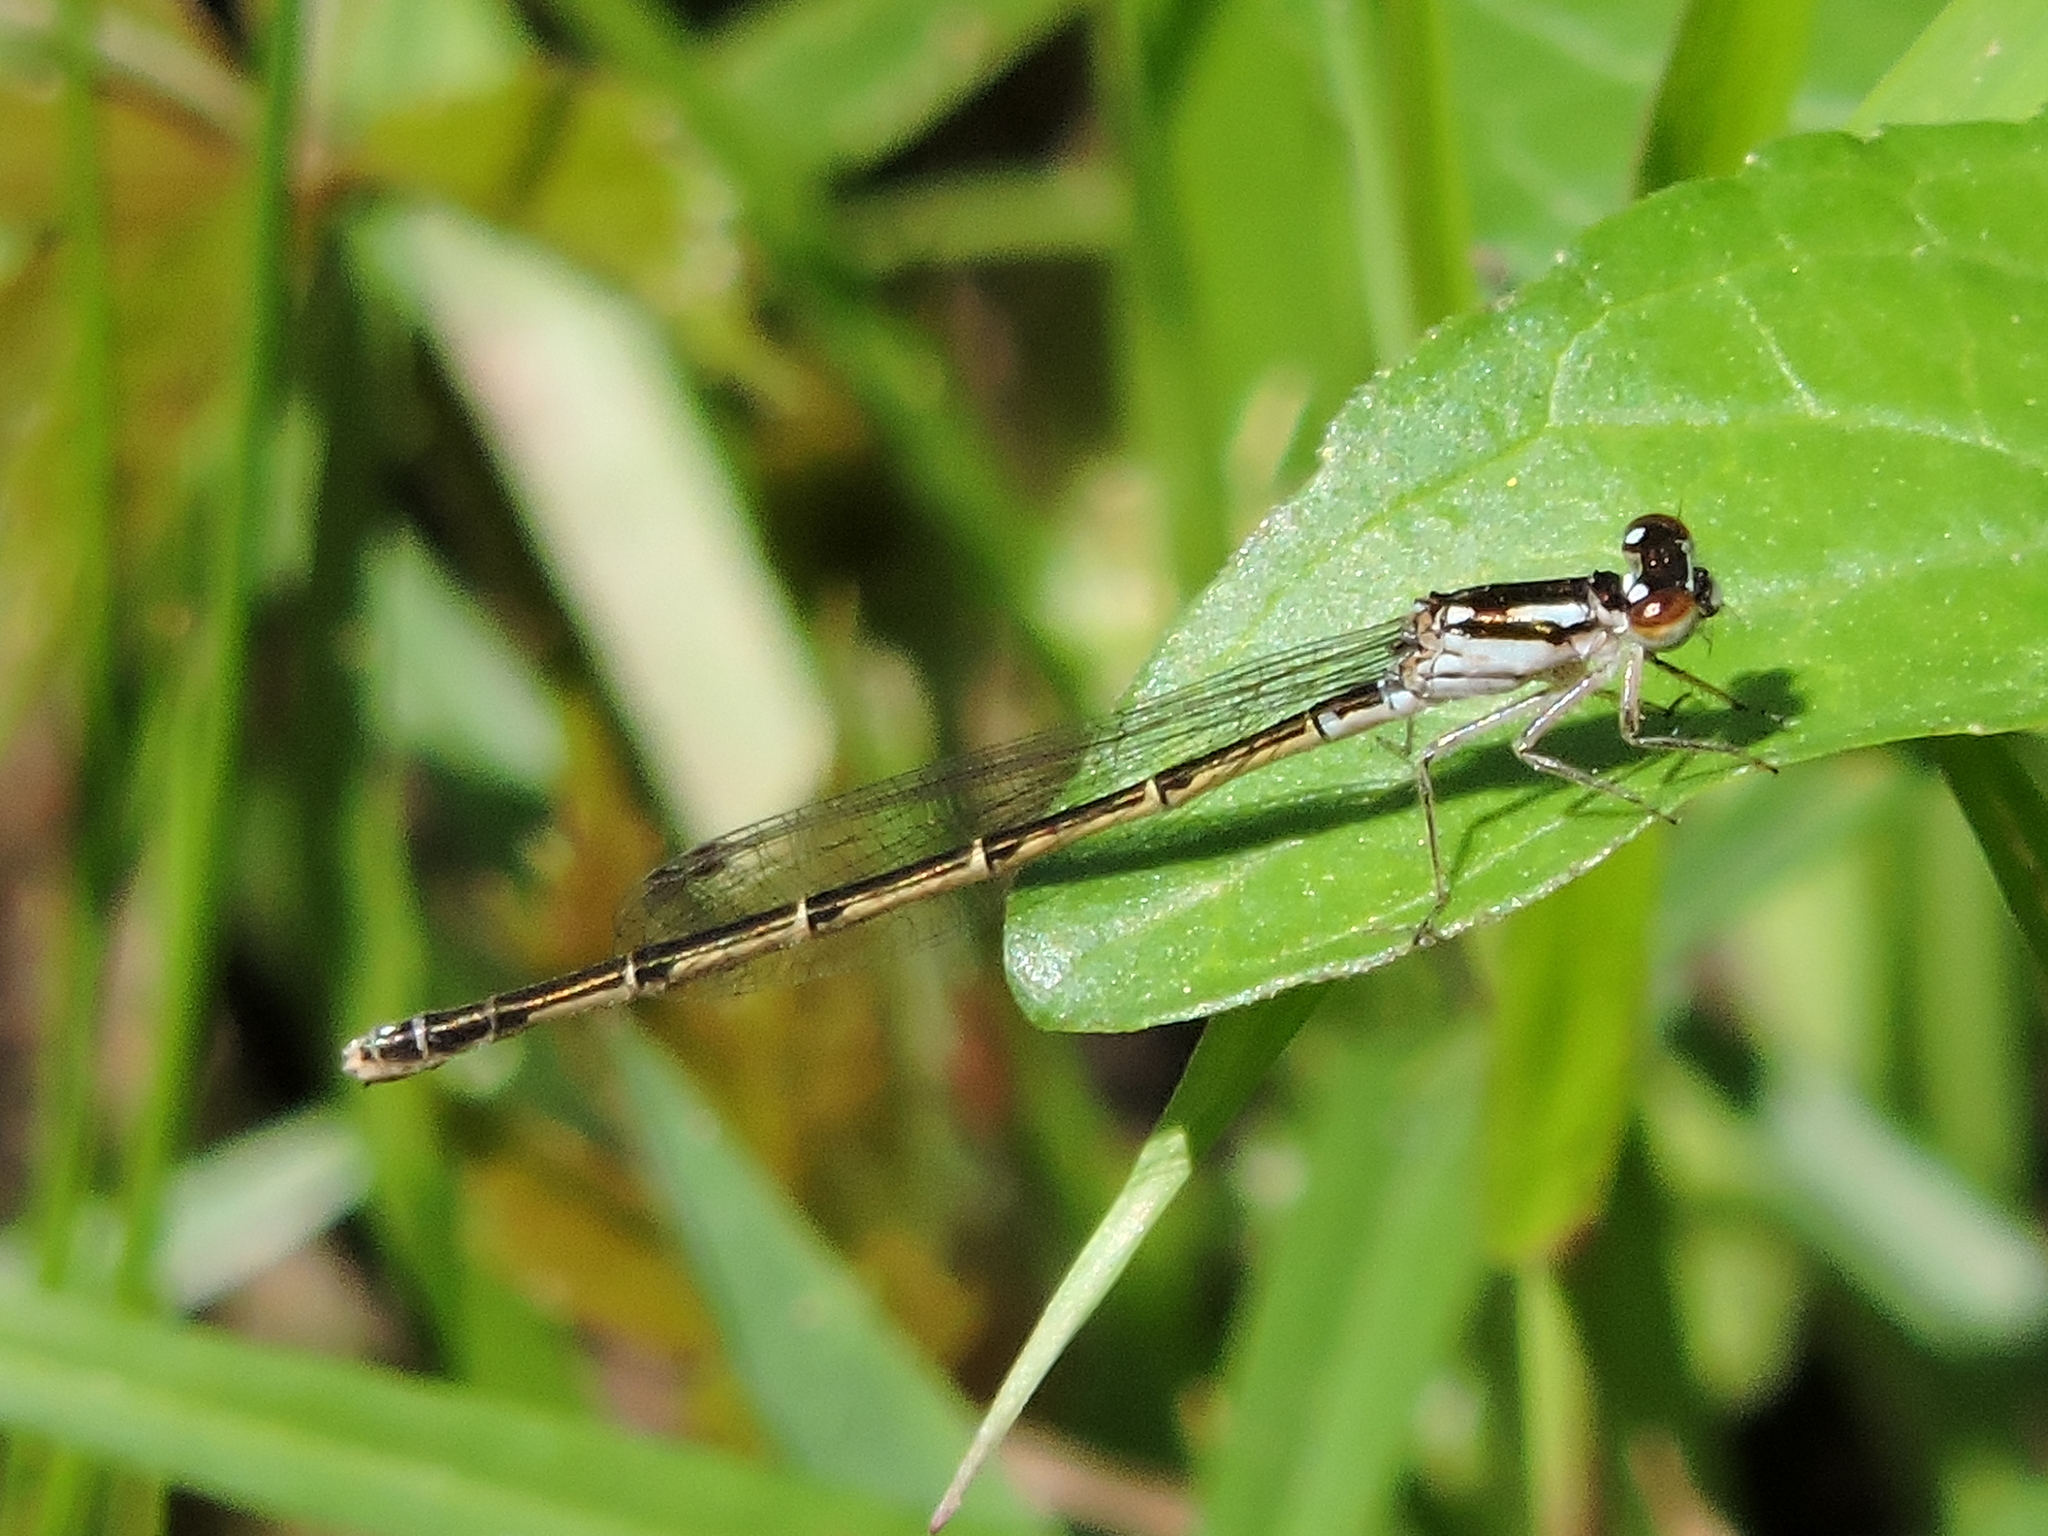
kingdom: Animalia
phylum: Arthropoda
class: Insecta
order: Odonata
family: Coenagrionidae
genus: Ischnura
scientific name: Ischnura posita
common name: Fragile forktail
